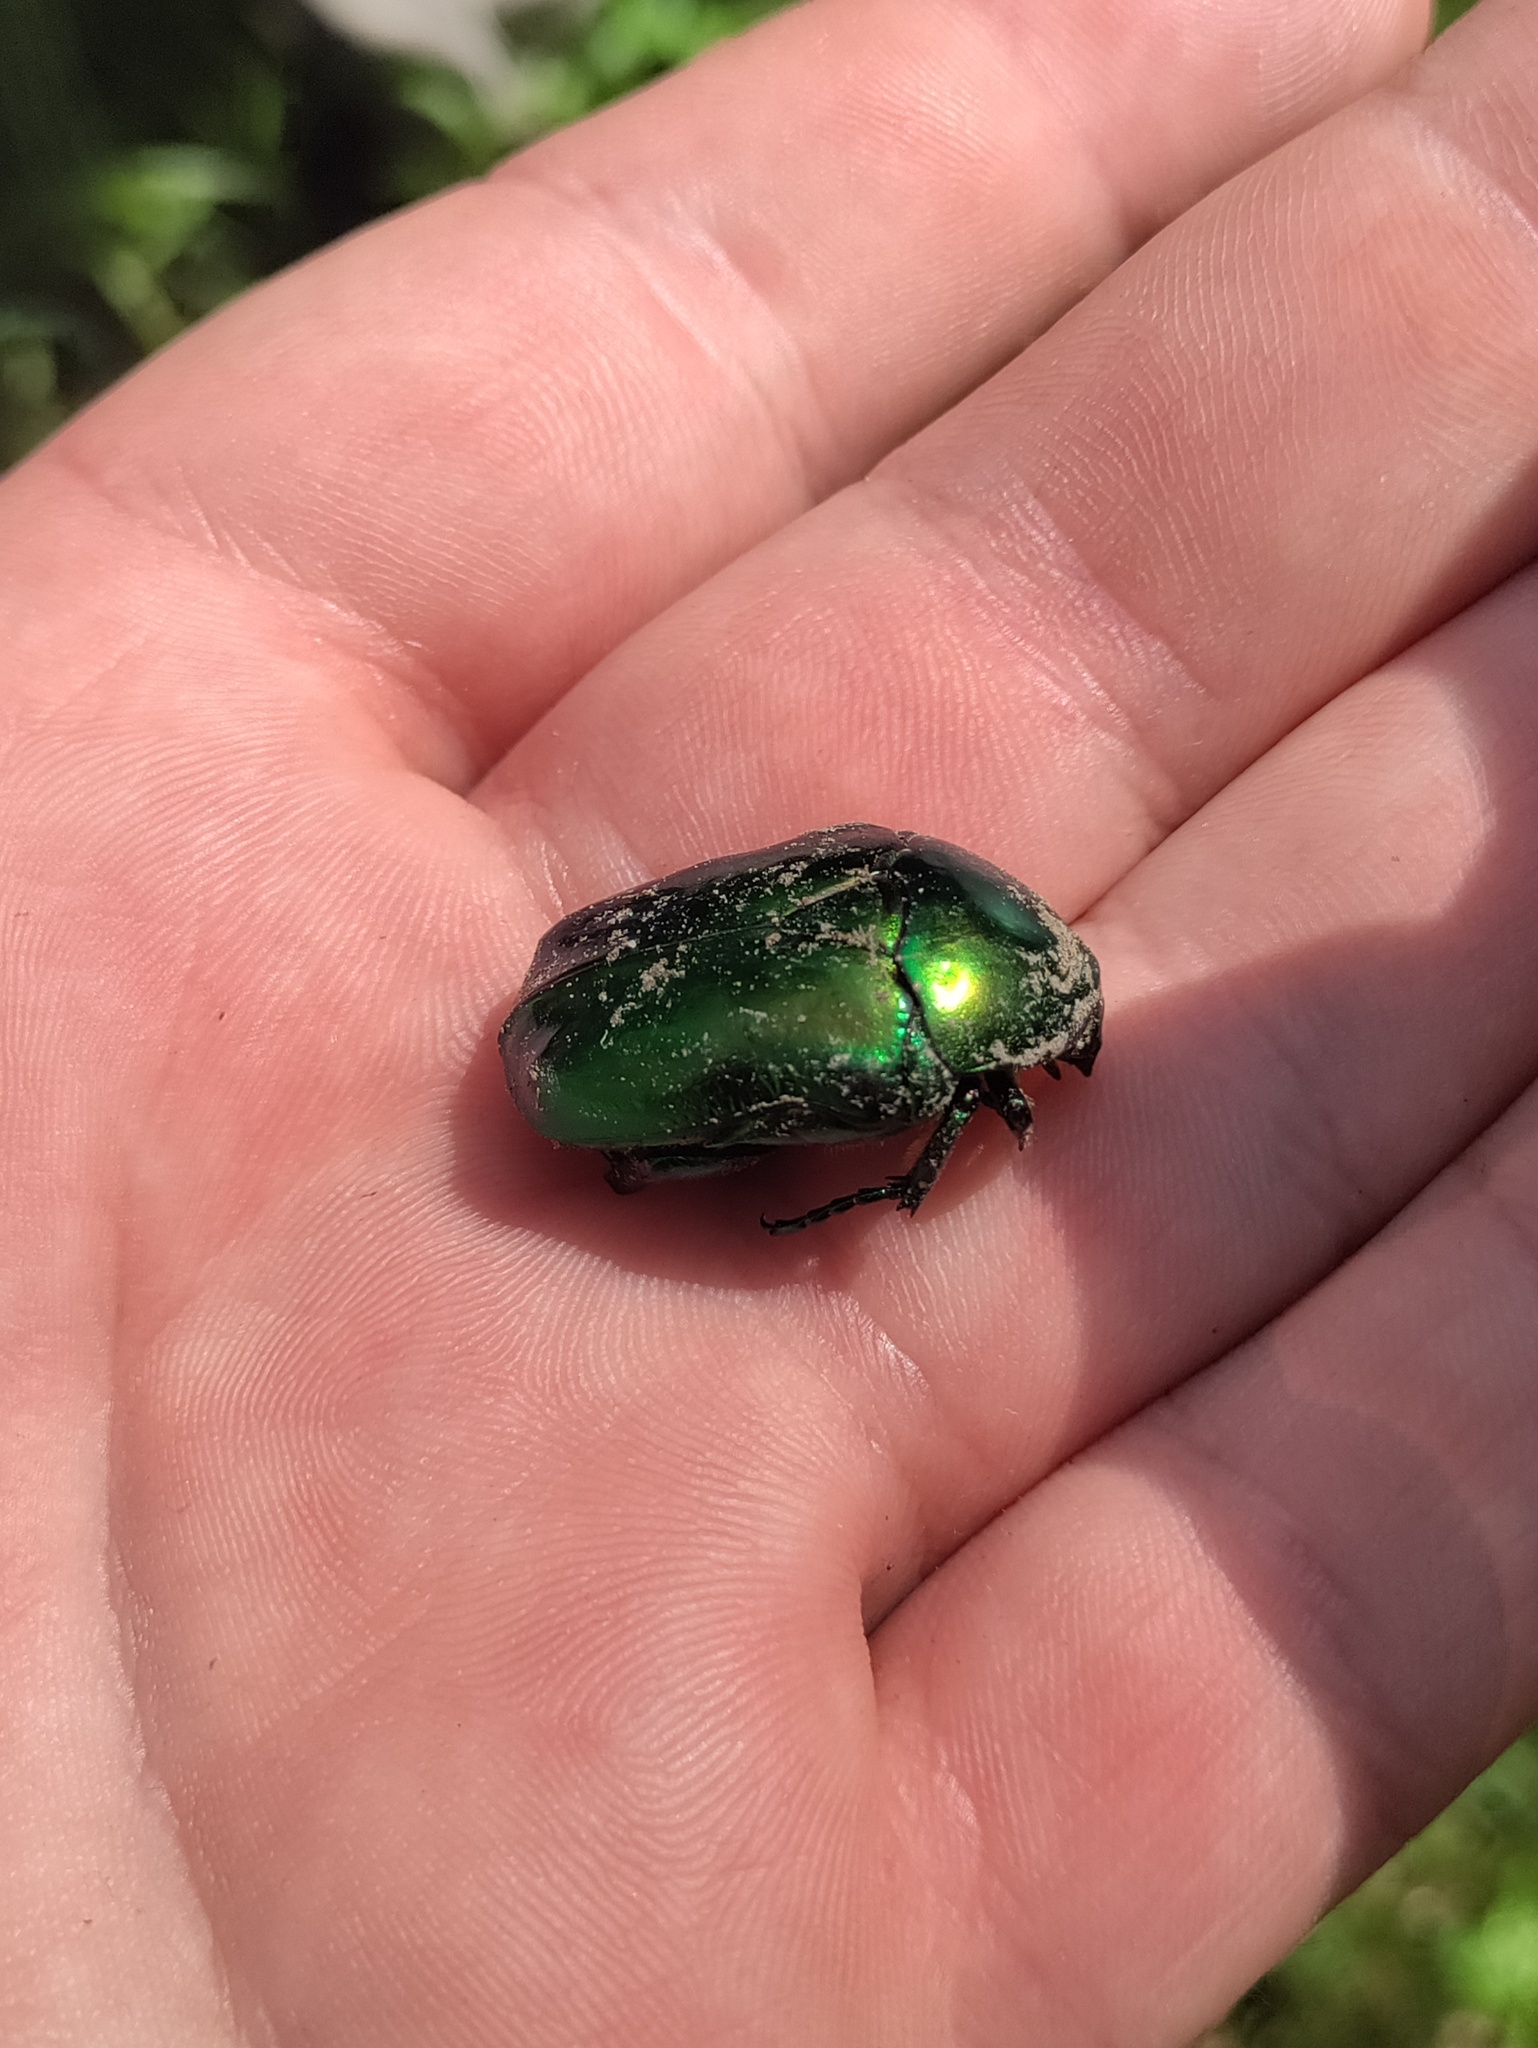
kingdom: Animalia
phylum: Arthropoda
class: Insecta
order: Coleoptera
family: Scarabaeidae
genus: Protaetia
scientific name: Protaetia speciosissima
